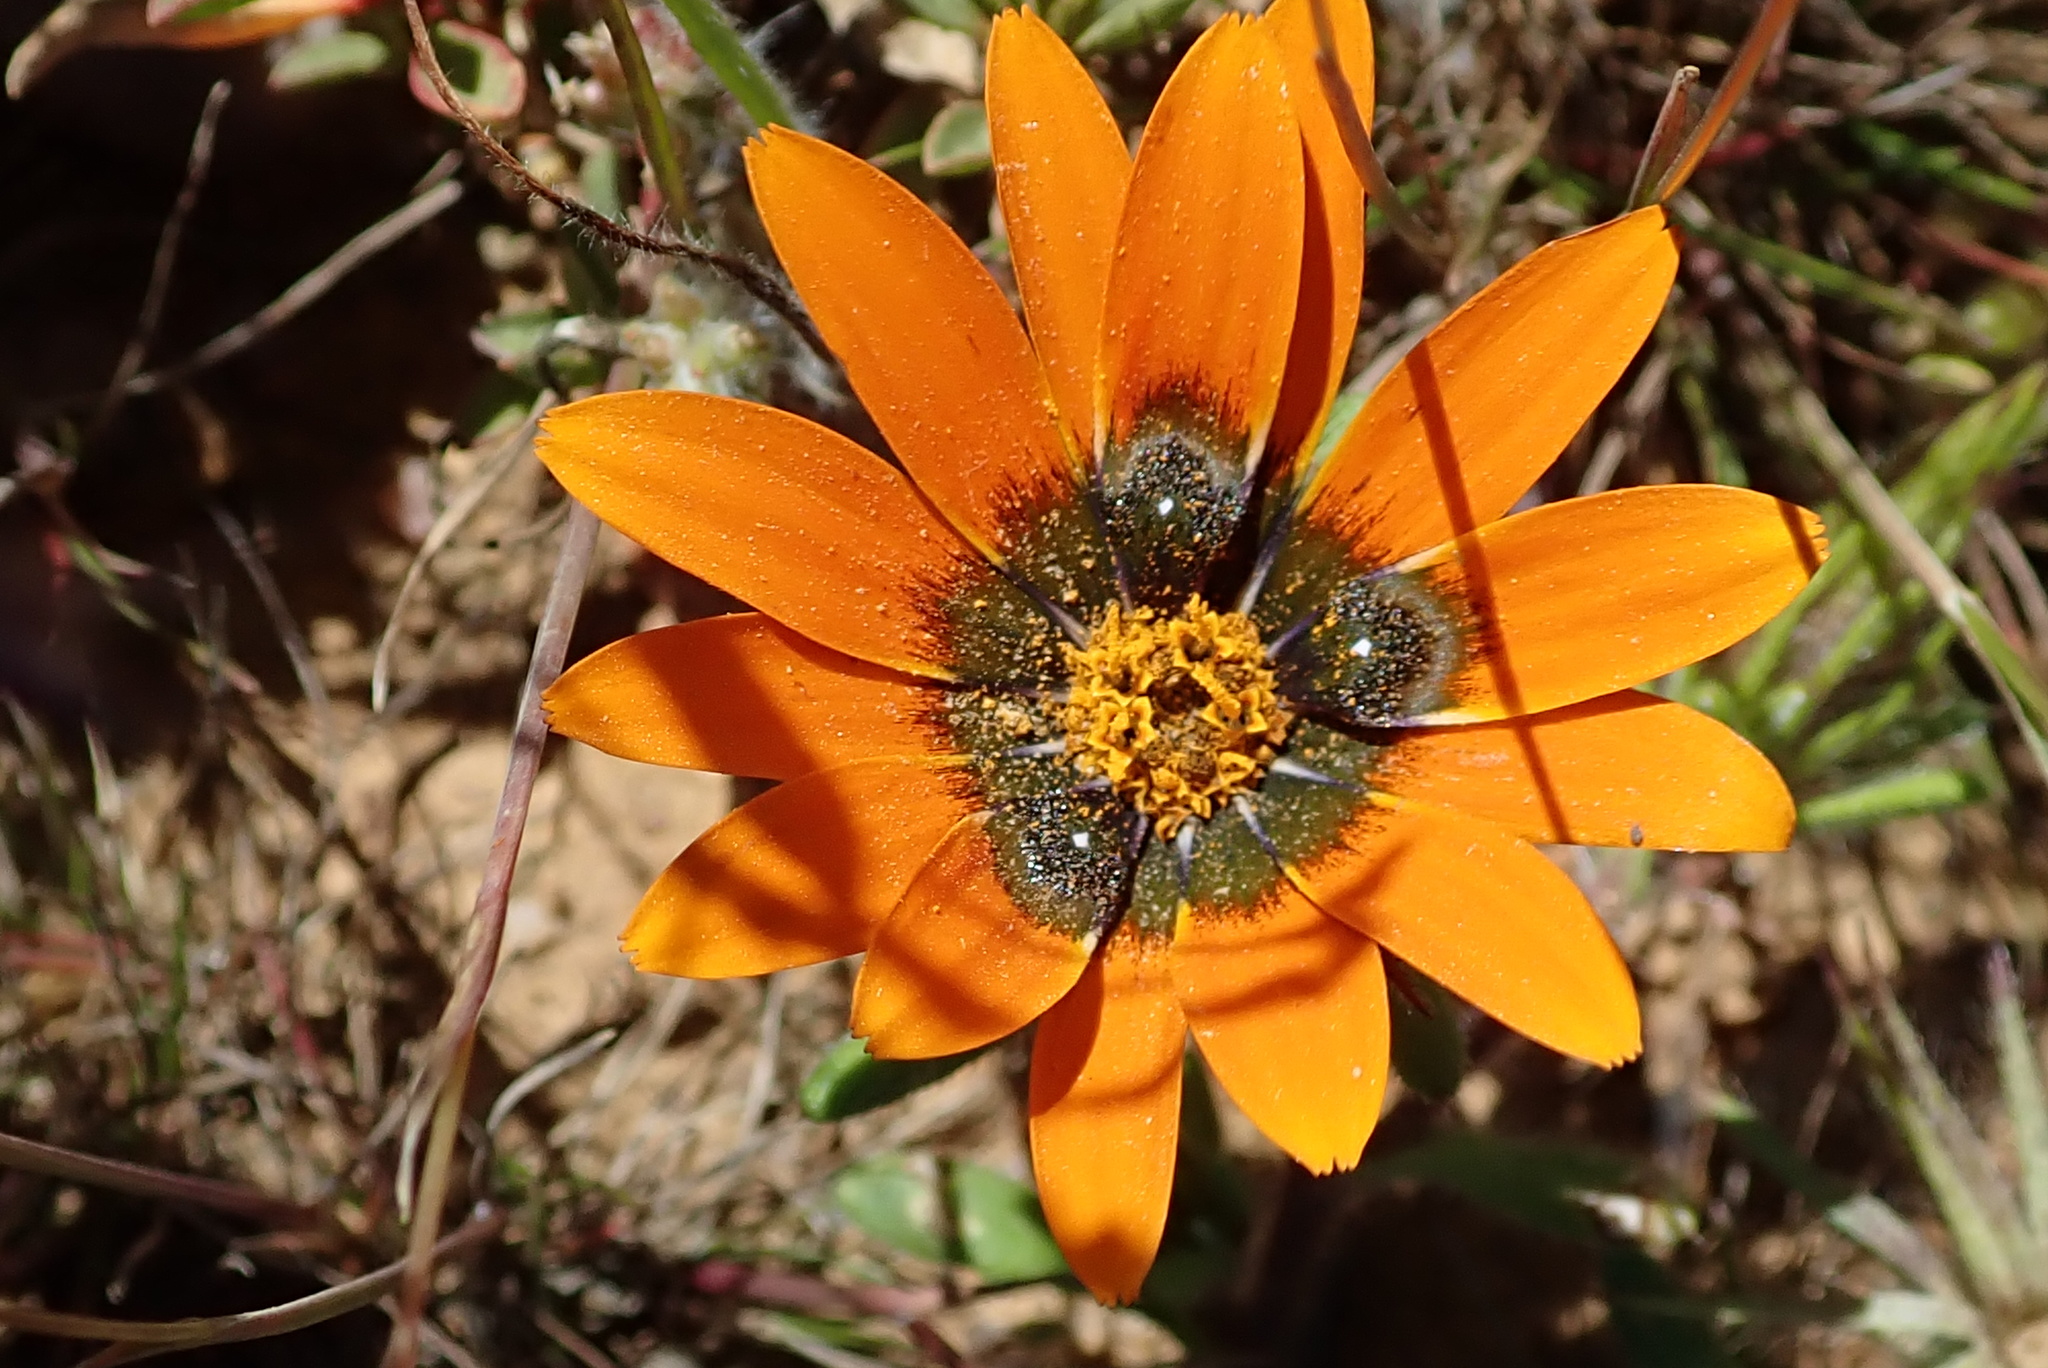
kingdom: Plantae
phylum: Tracheophyta
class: Magnoliopsida
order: Asterales
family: Asteraceae
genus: Gorteria
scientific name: Gorteria diffusa
